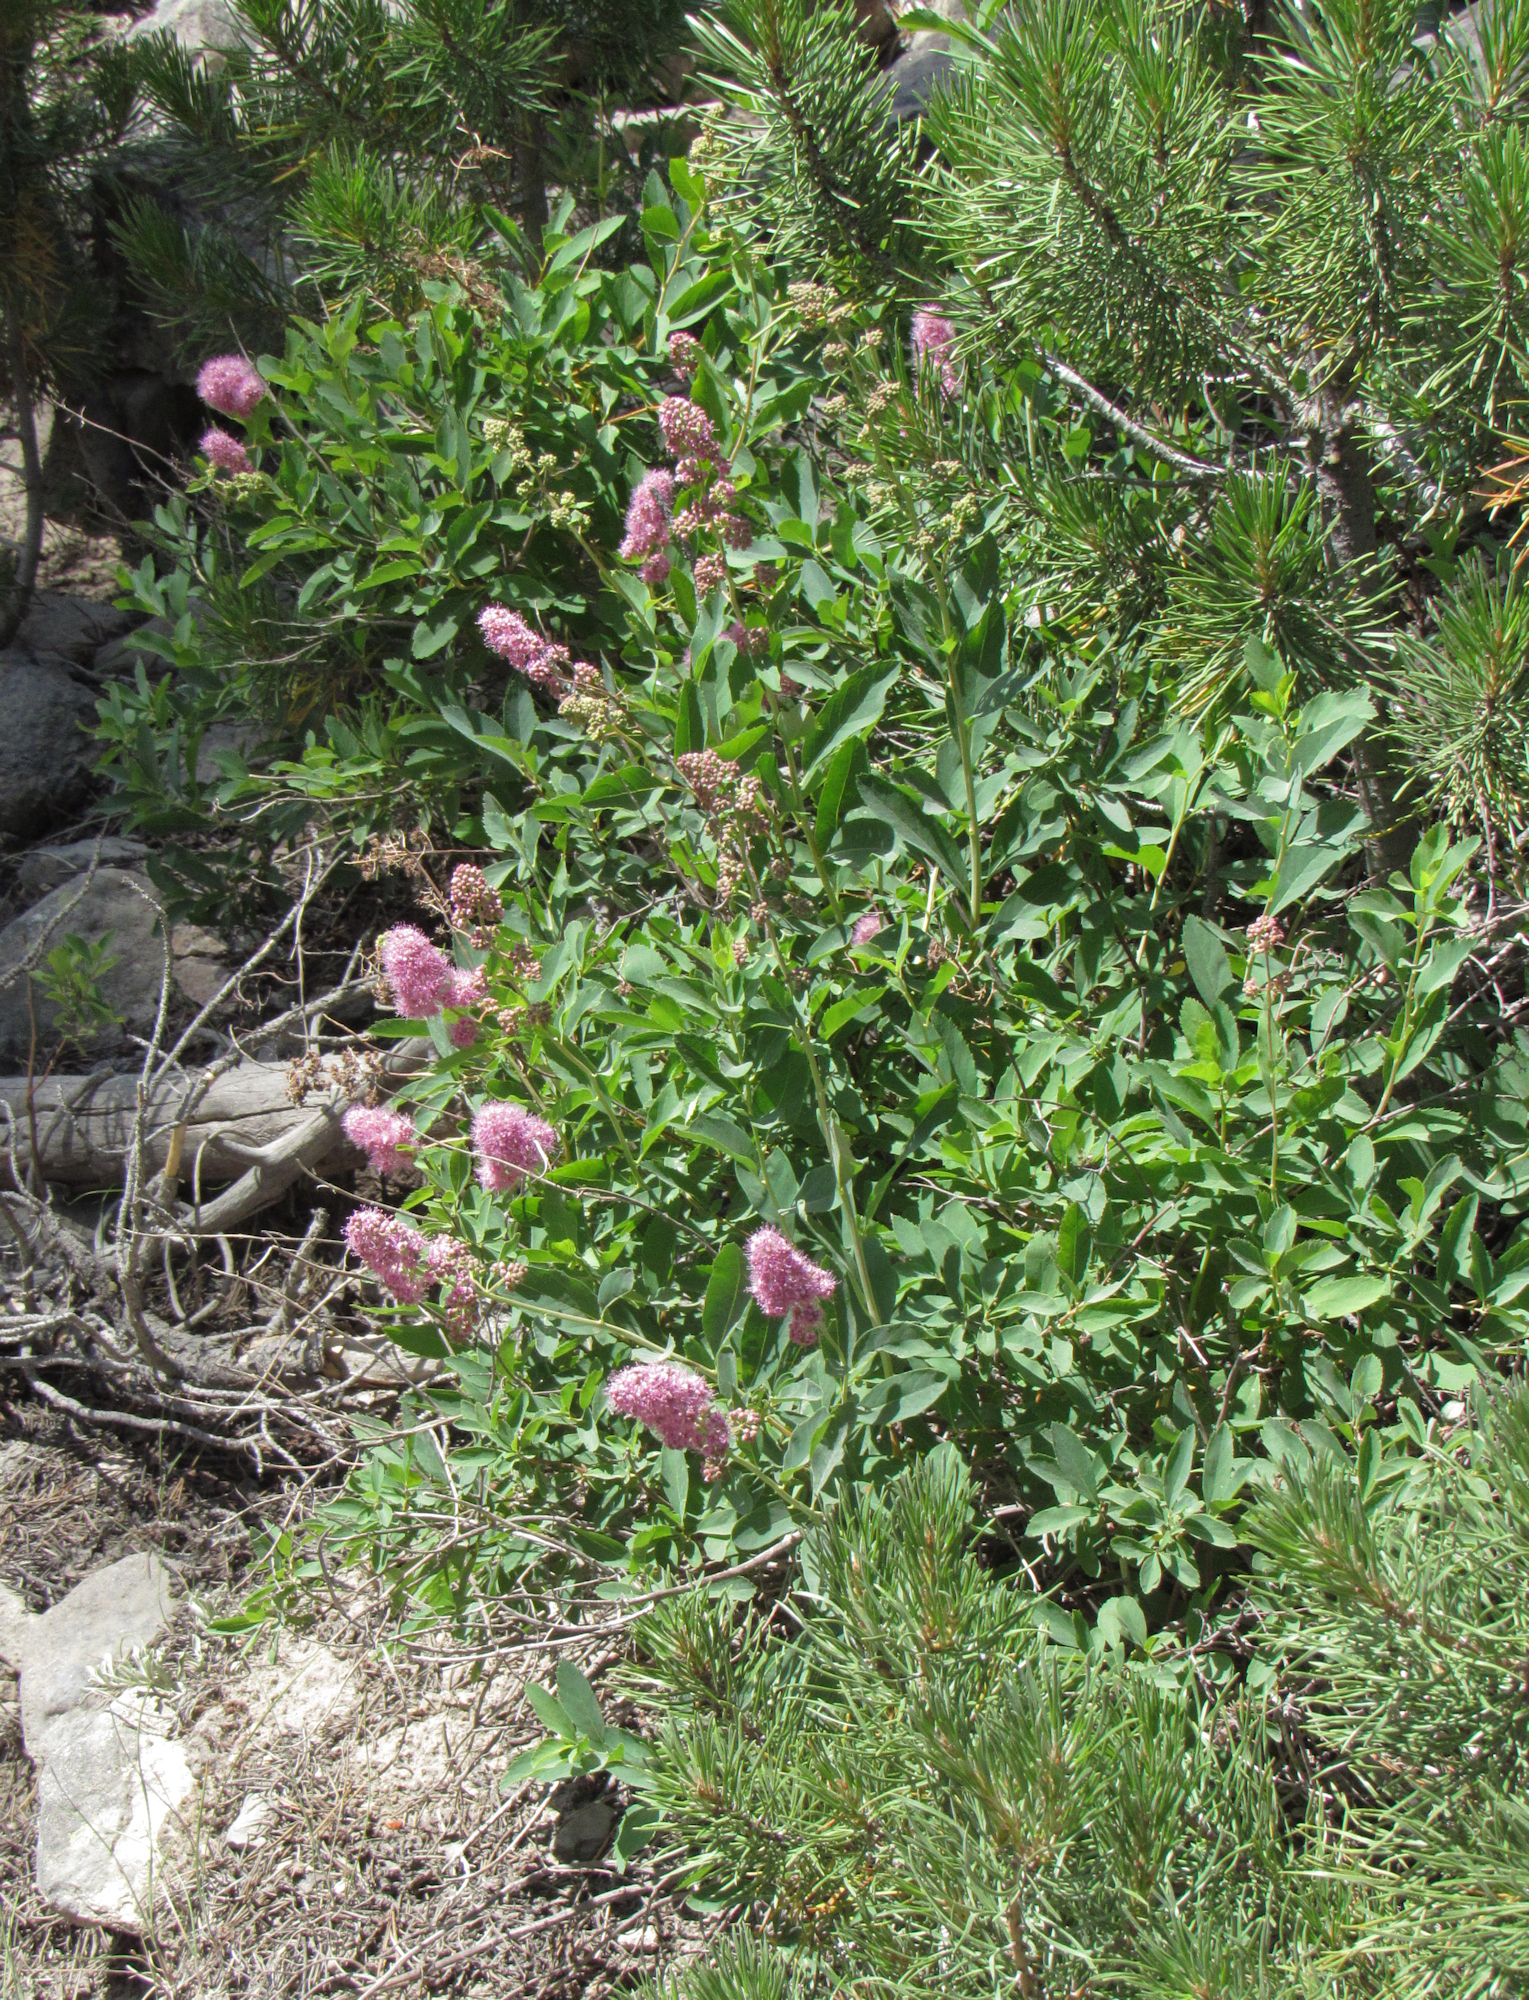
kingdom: Plantae
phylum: Tracheophyta
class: Magnoliopsida
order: Rosales
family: Rosaceae
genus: Spiraea
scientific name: Spiraea douglasii
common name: Steeplebush
